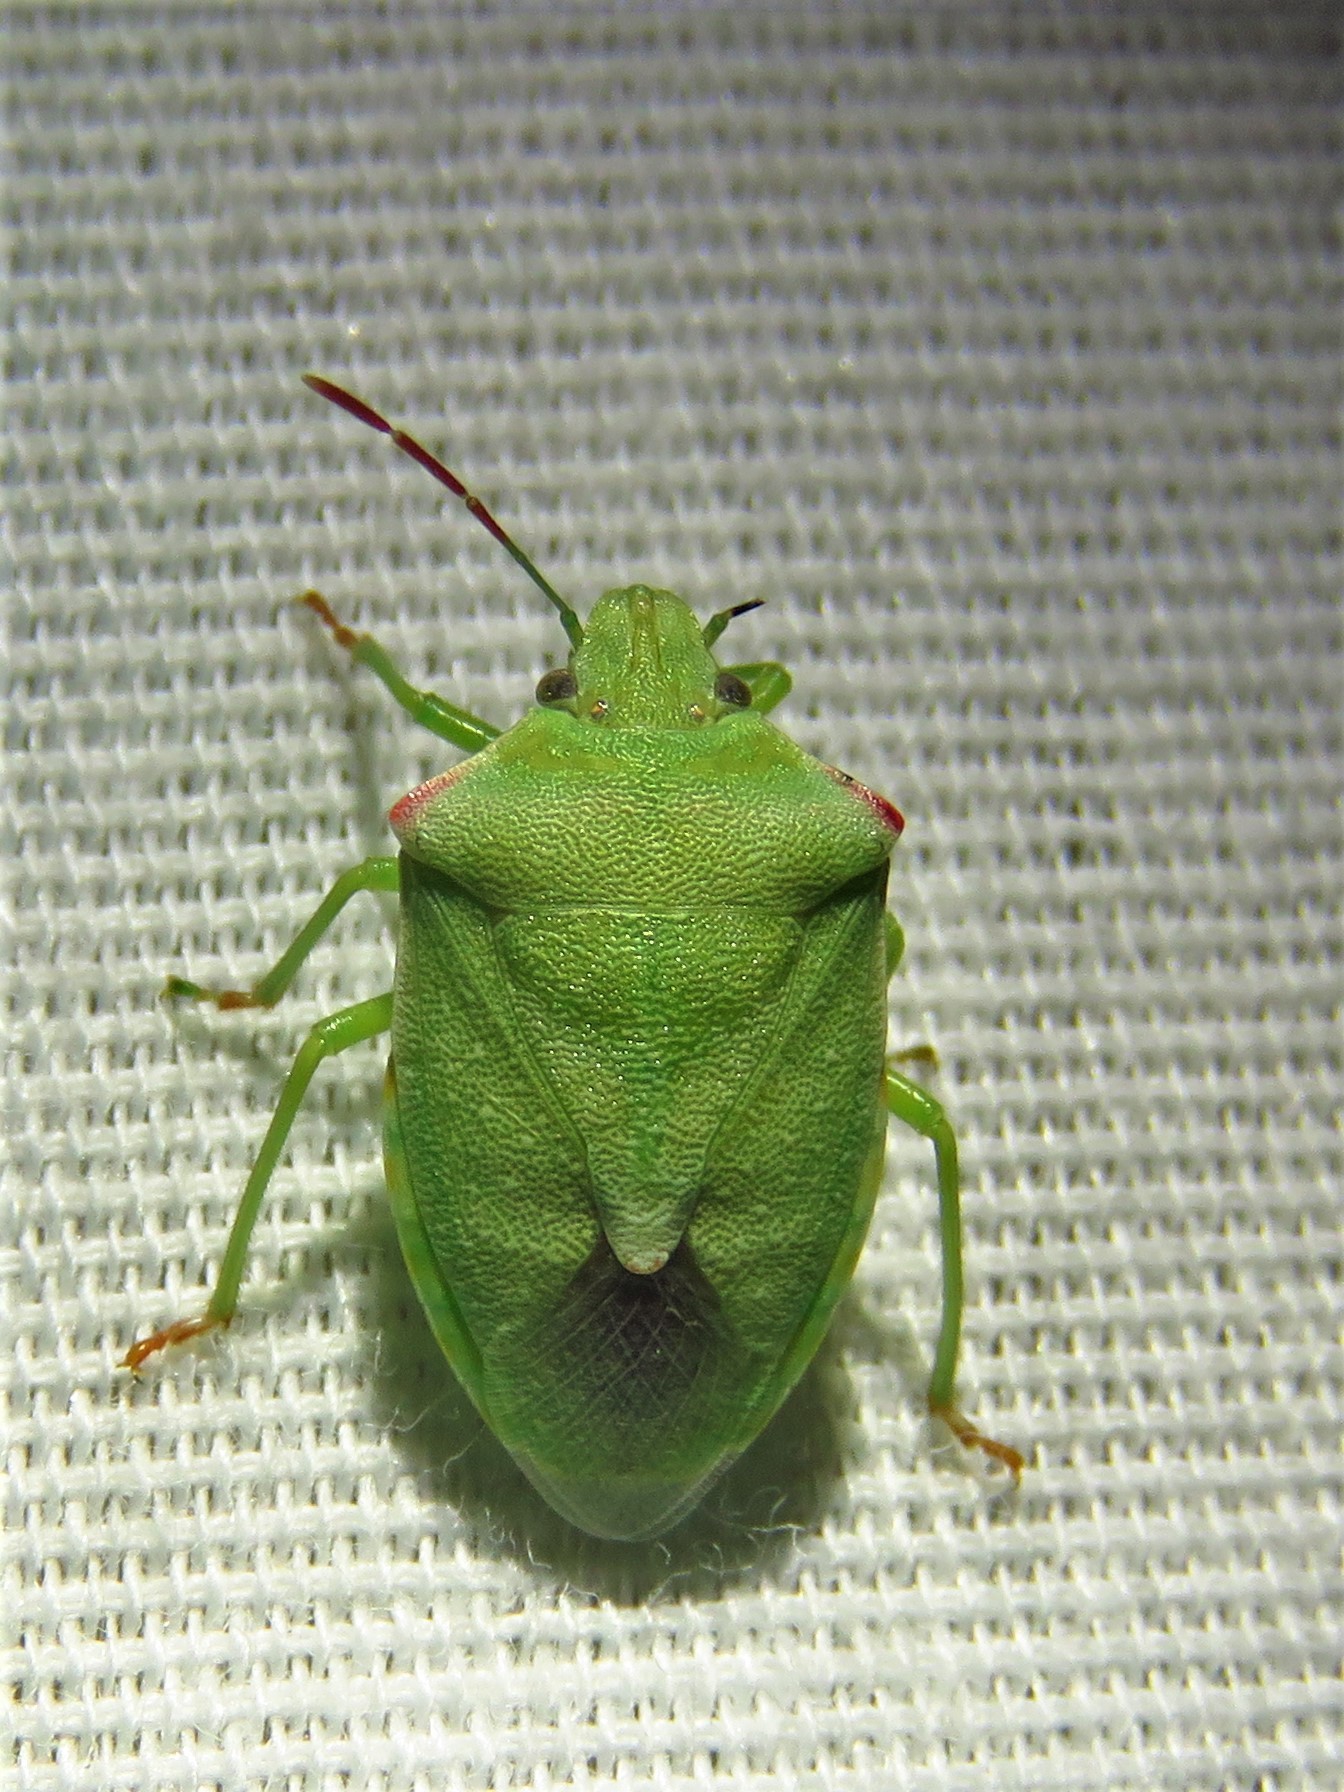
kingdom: Animalia
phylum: Arthropoda
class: Insecta
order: Hemiptera
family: Pentatomidae
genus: Thyanta
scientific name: Thyanta accerra
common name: Stink bug
